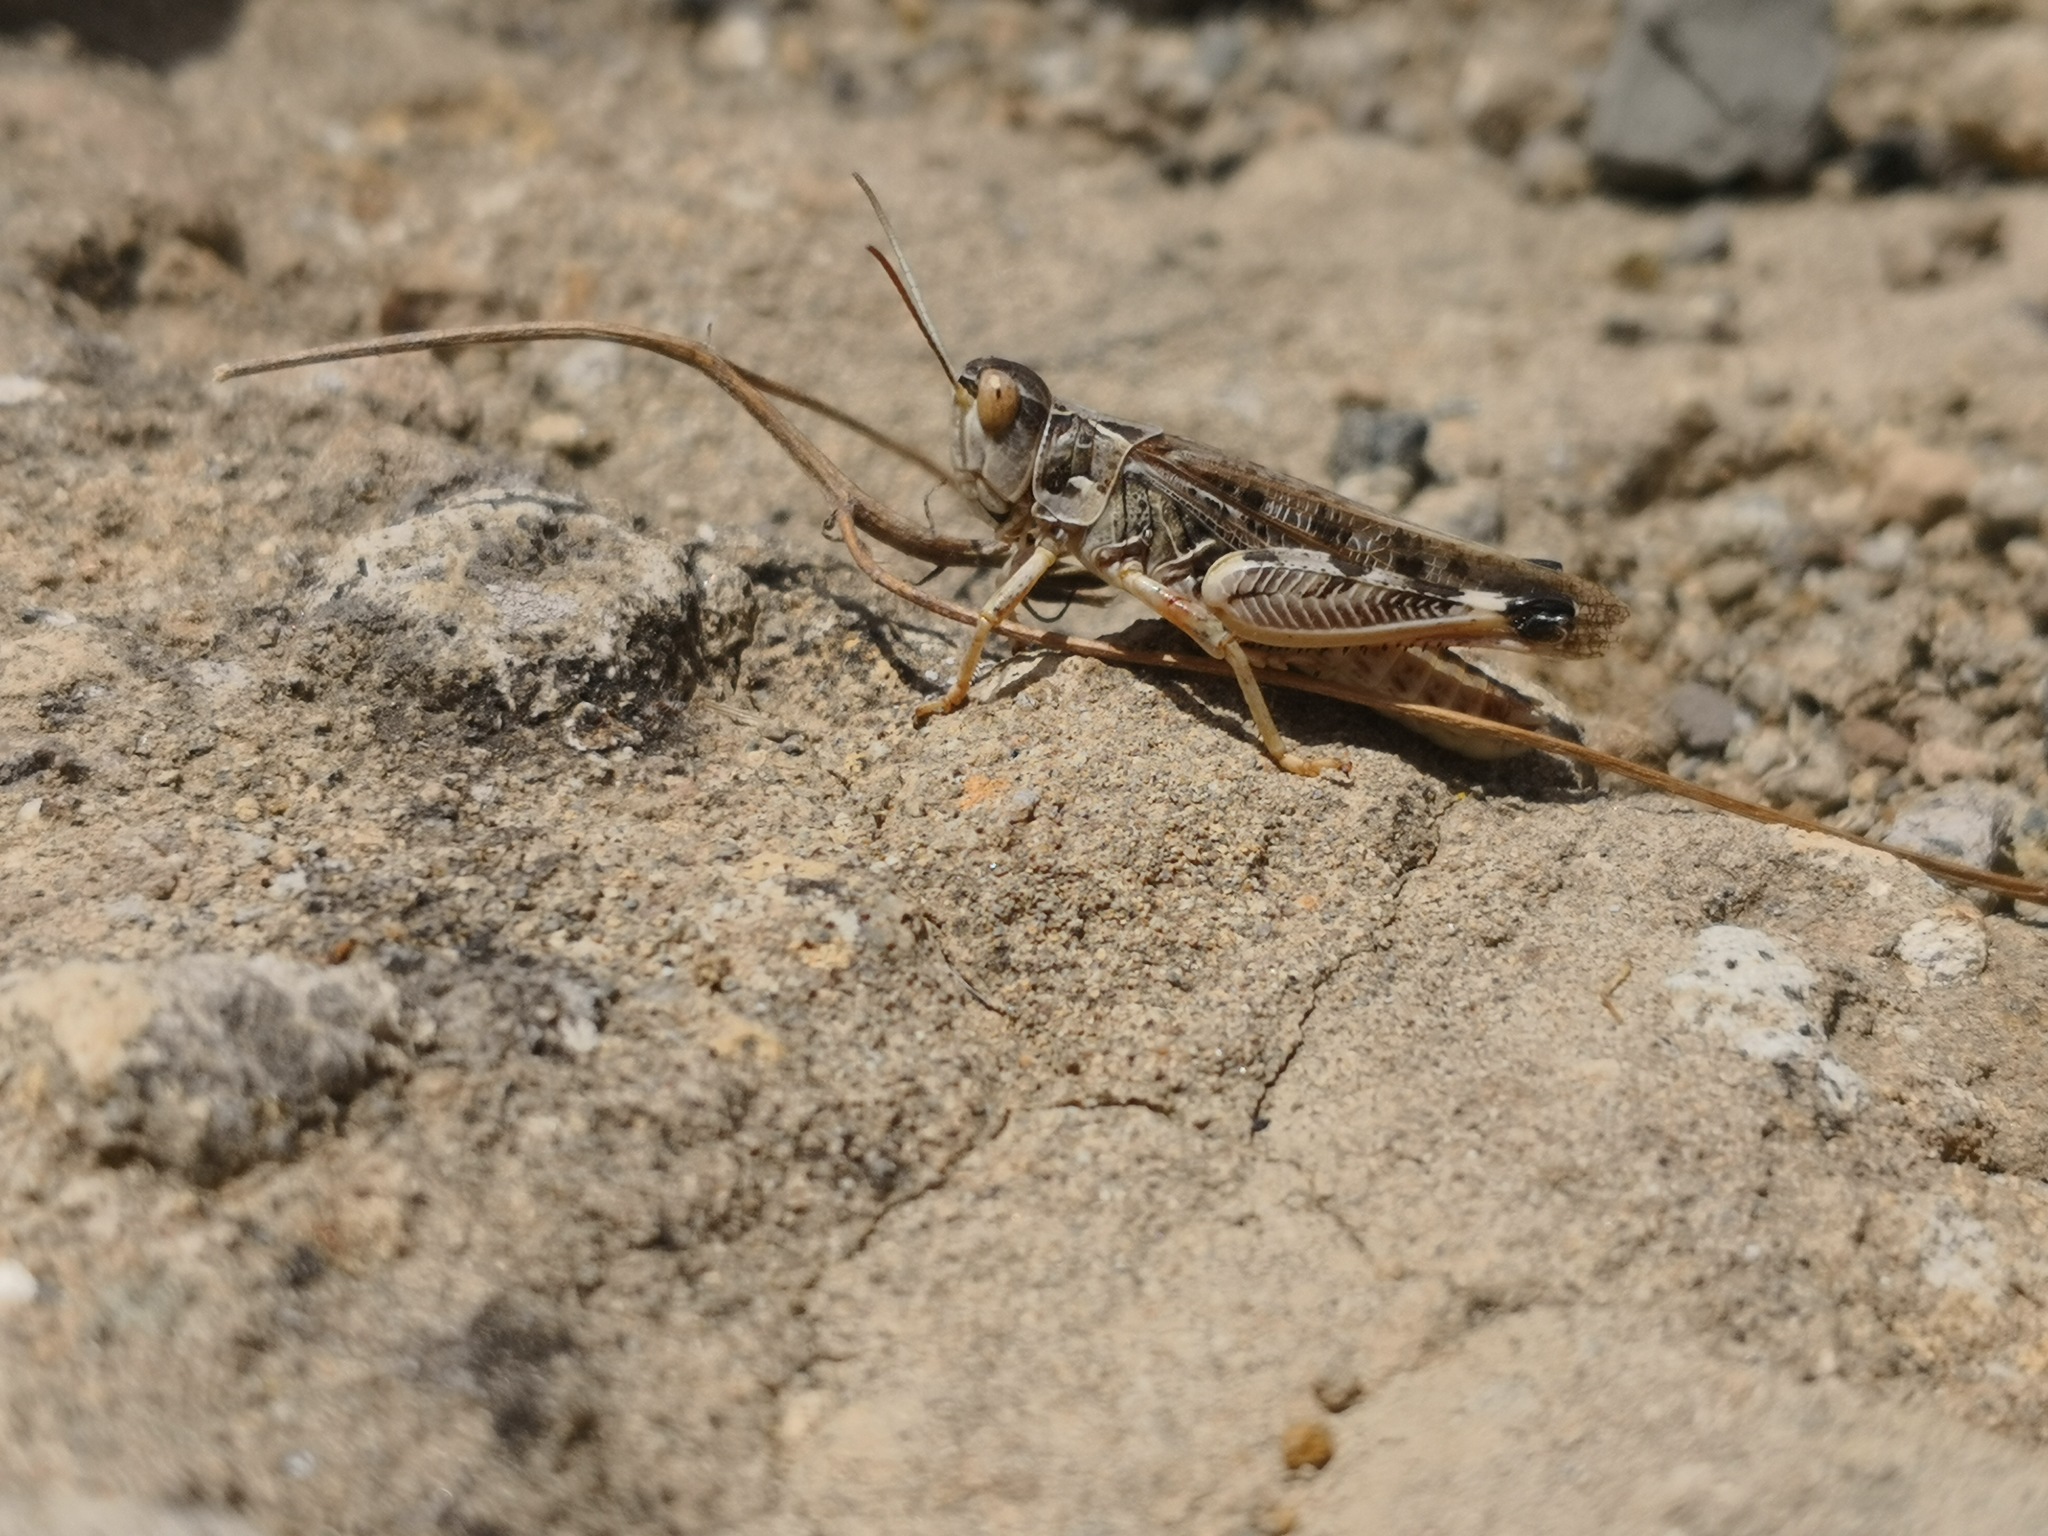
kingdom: Animalia
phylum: Arthropoda
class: Insecta
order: Orthoptera
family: Acrididae
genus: Dociostaurus
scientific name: Dociostaurus maroccanus
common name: Moroccan locust
